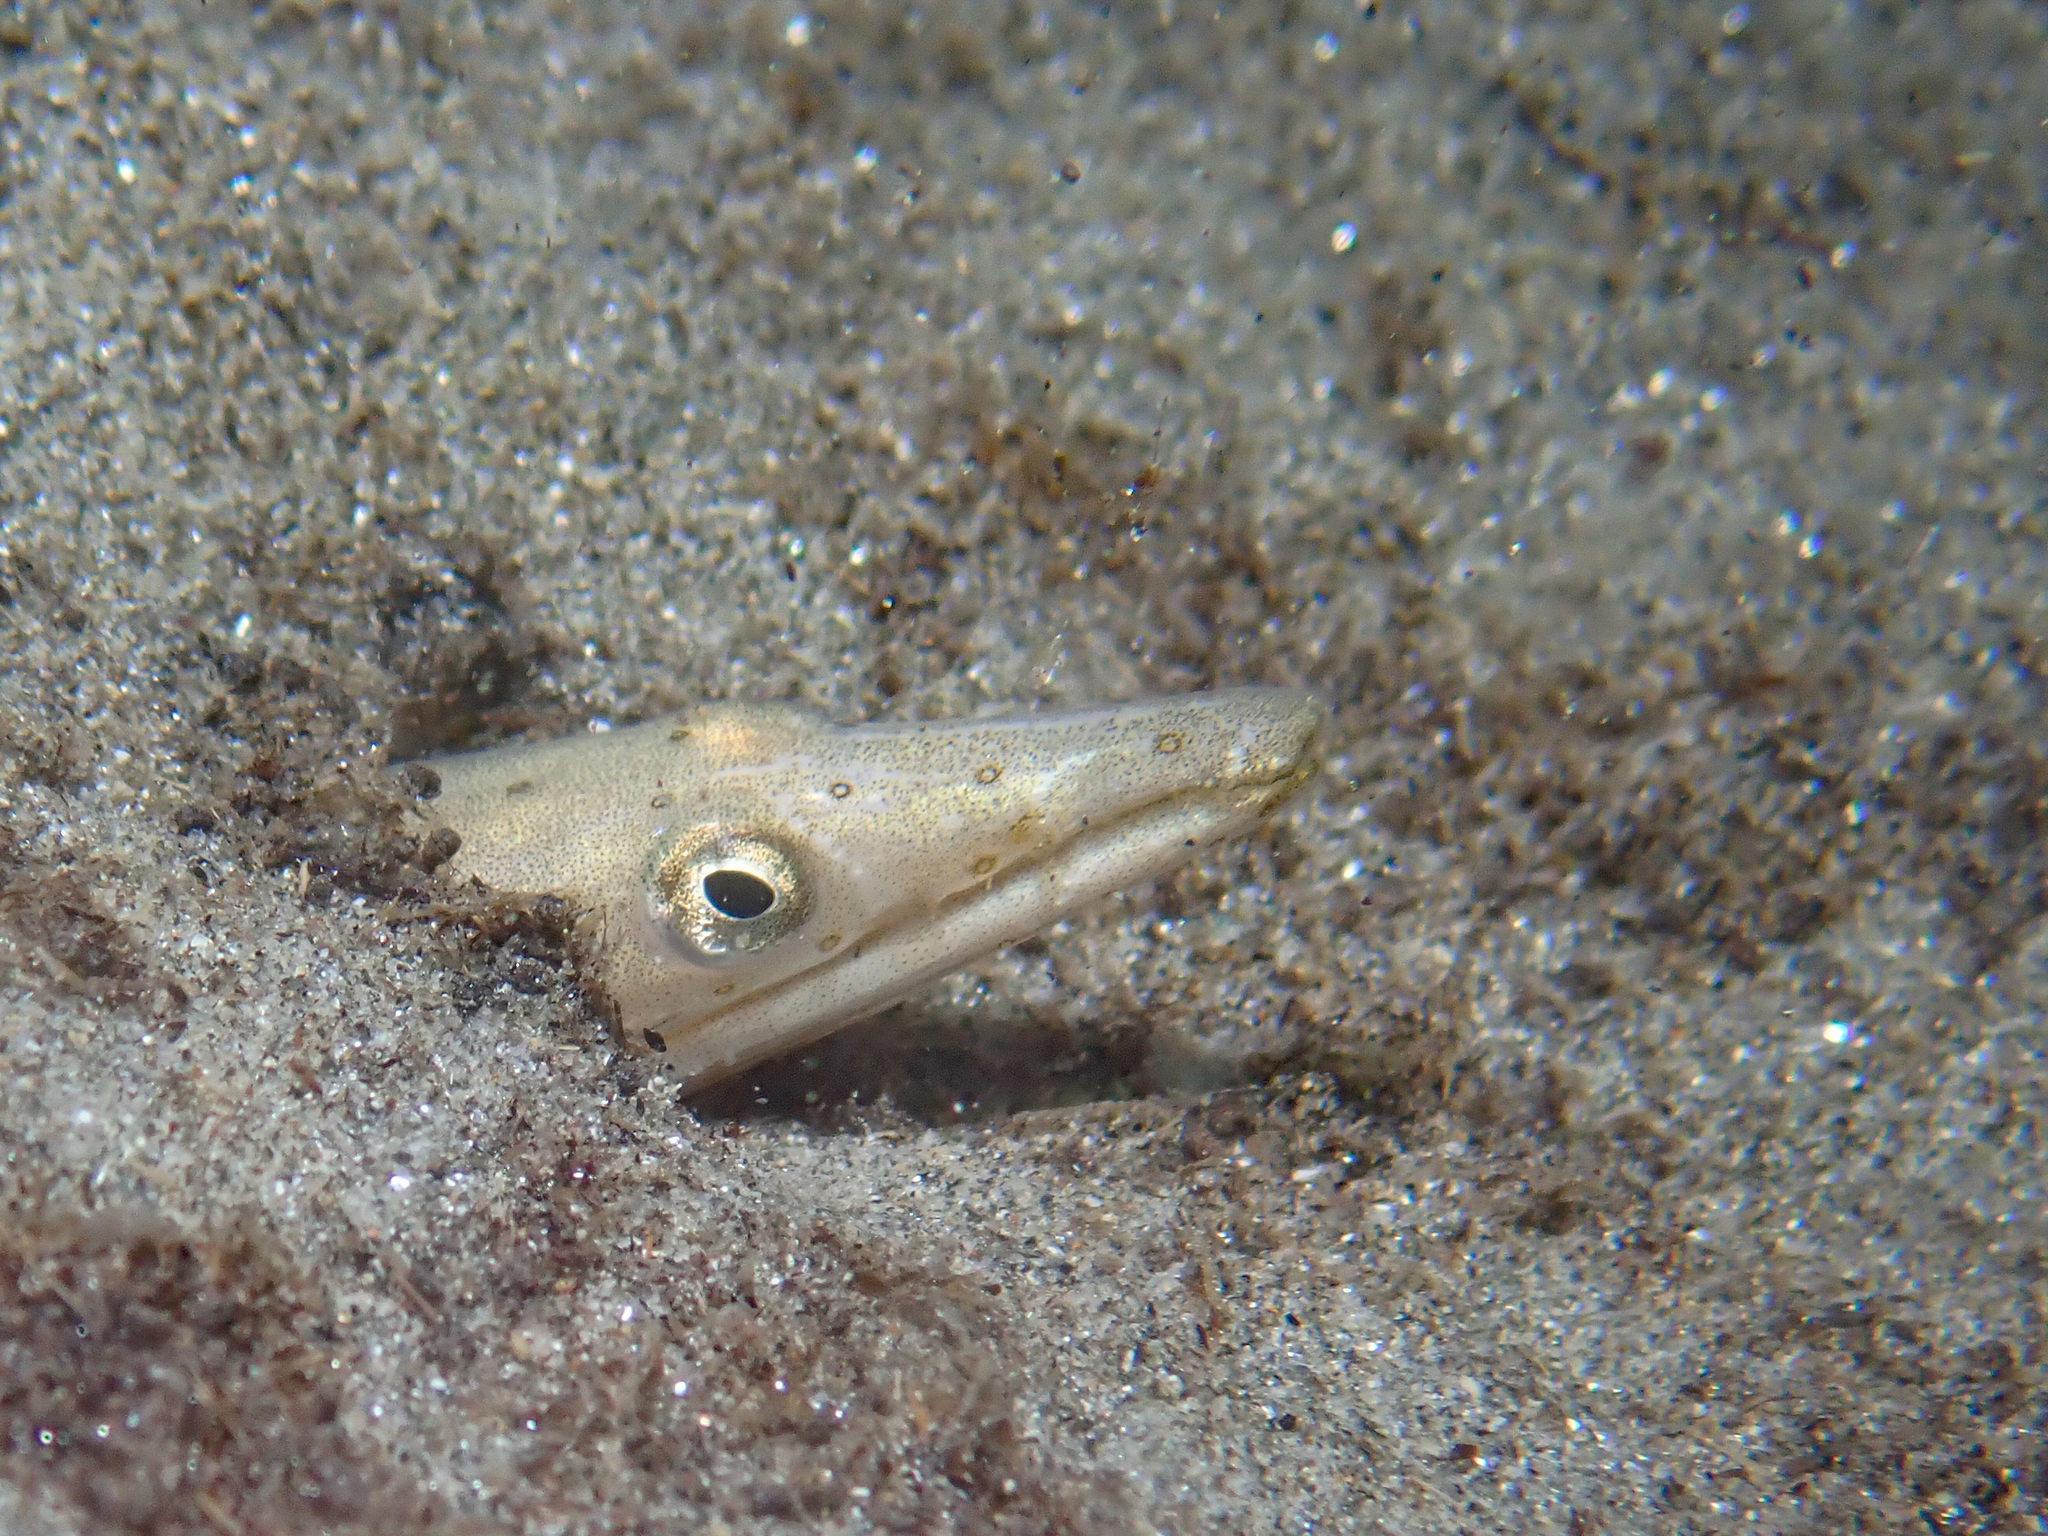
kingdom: Animalia
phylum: Chordata
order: Anguilliformes
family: Ophichthidae
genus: Ophisurus
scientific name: Ophisurus serpens
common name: Serpent eel
